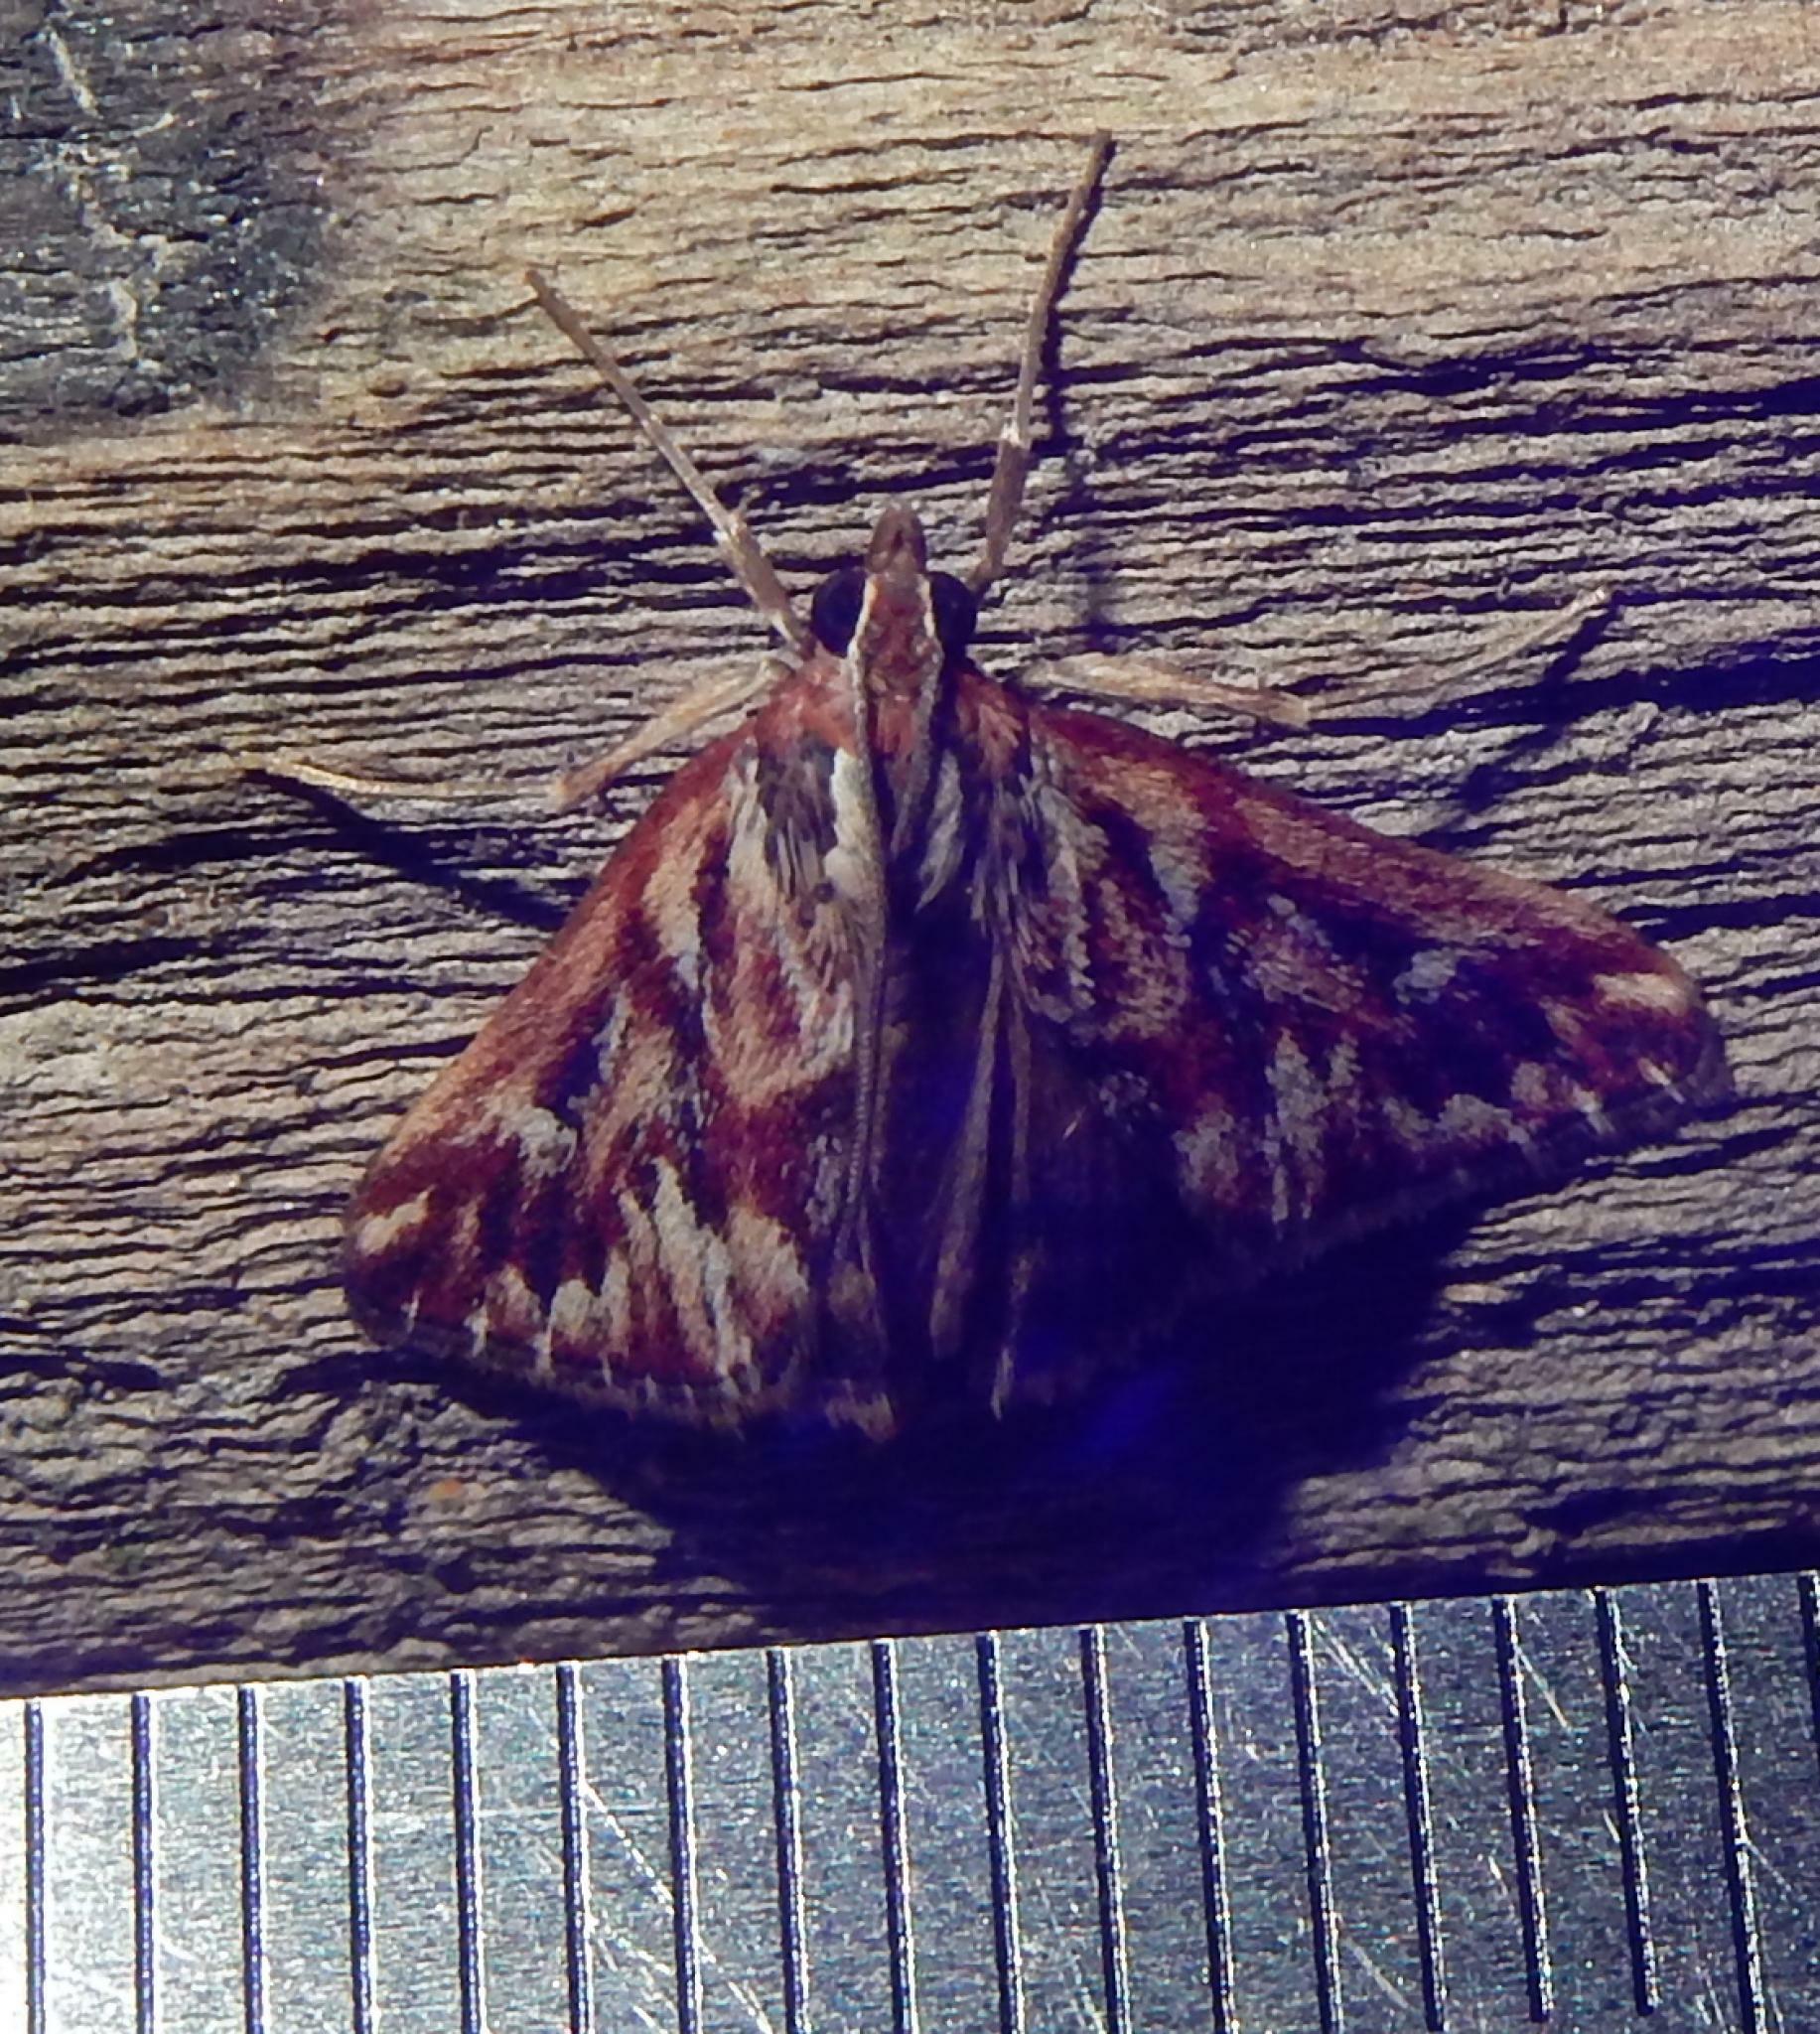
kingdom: Animalia
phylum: Arthropoda
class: Insecta
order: Lepidoptera
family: Crambidae
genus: Blepharucha
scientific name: Blepharucha zaide
